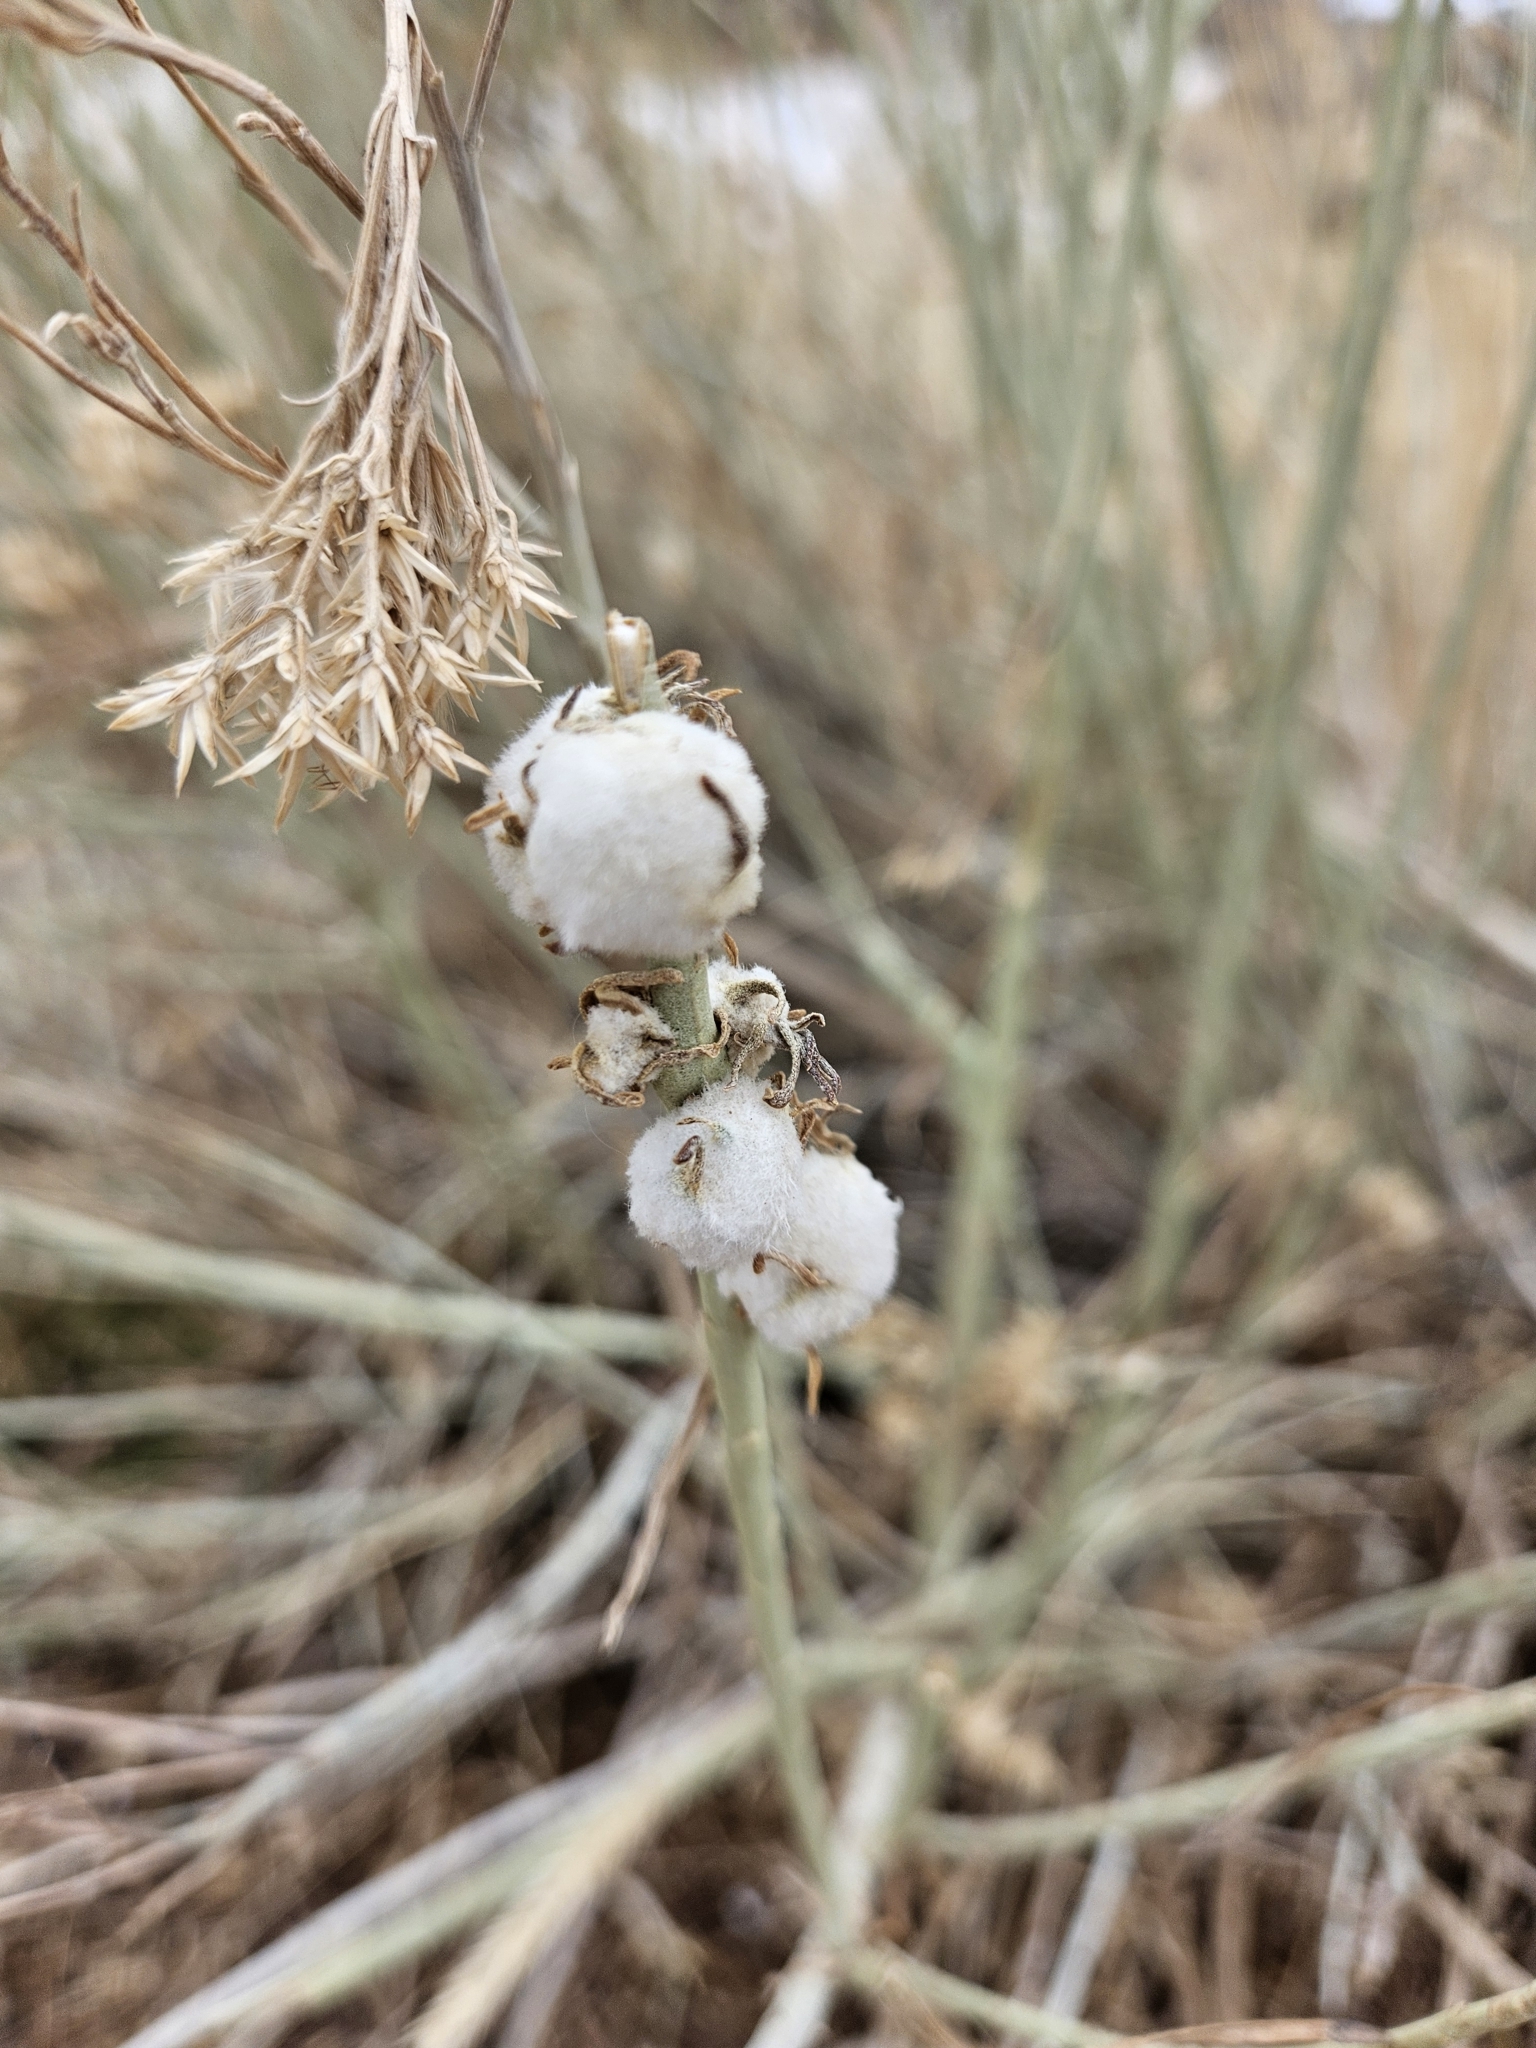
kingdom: Animalia
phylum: Arthropoda
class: Insecta
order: Diptera
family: Tephritidae
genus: Aciurina
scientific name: Aciurina bigeloviae
